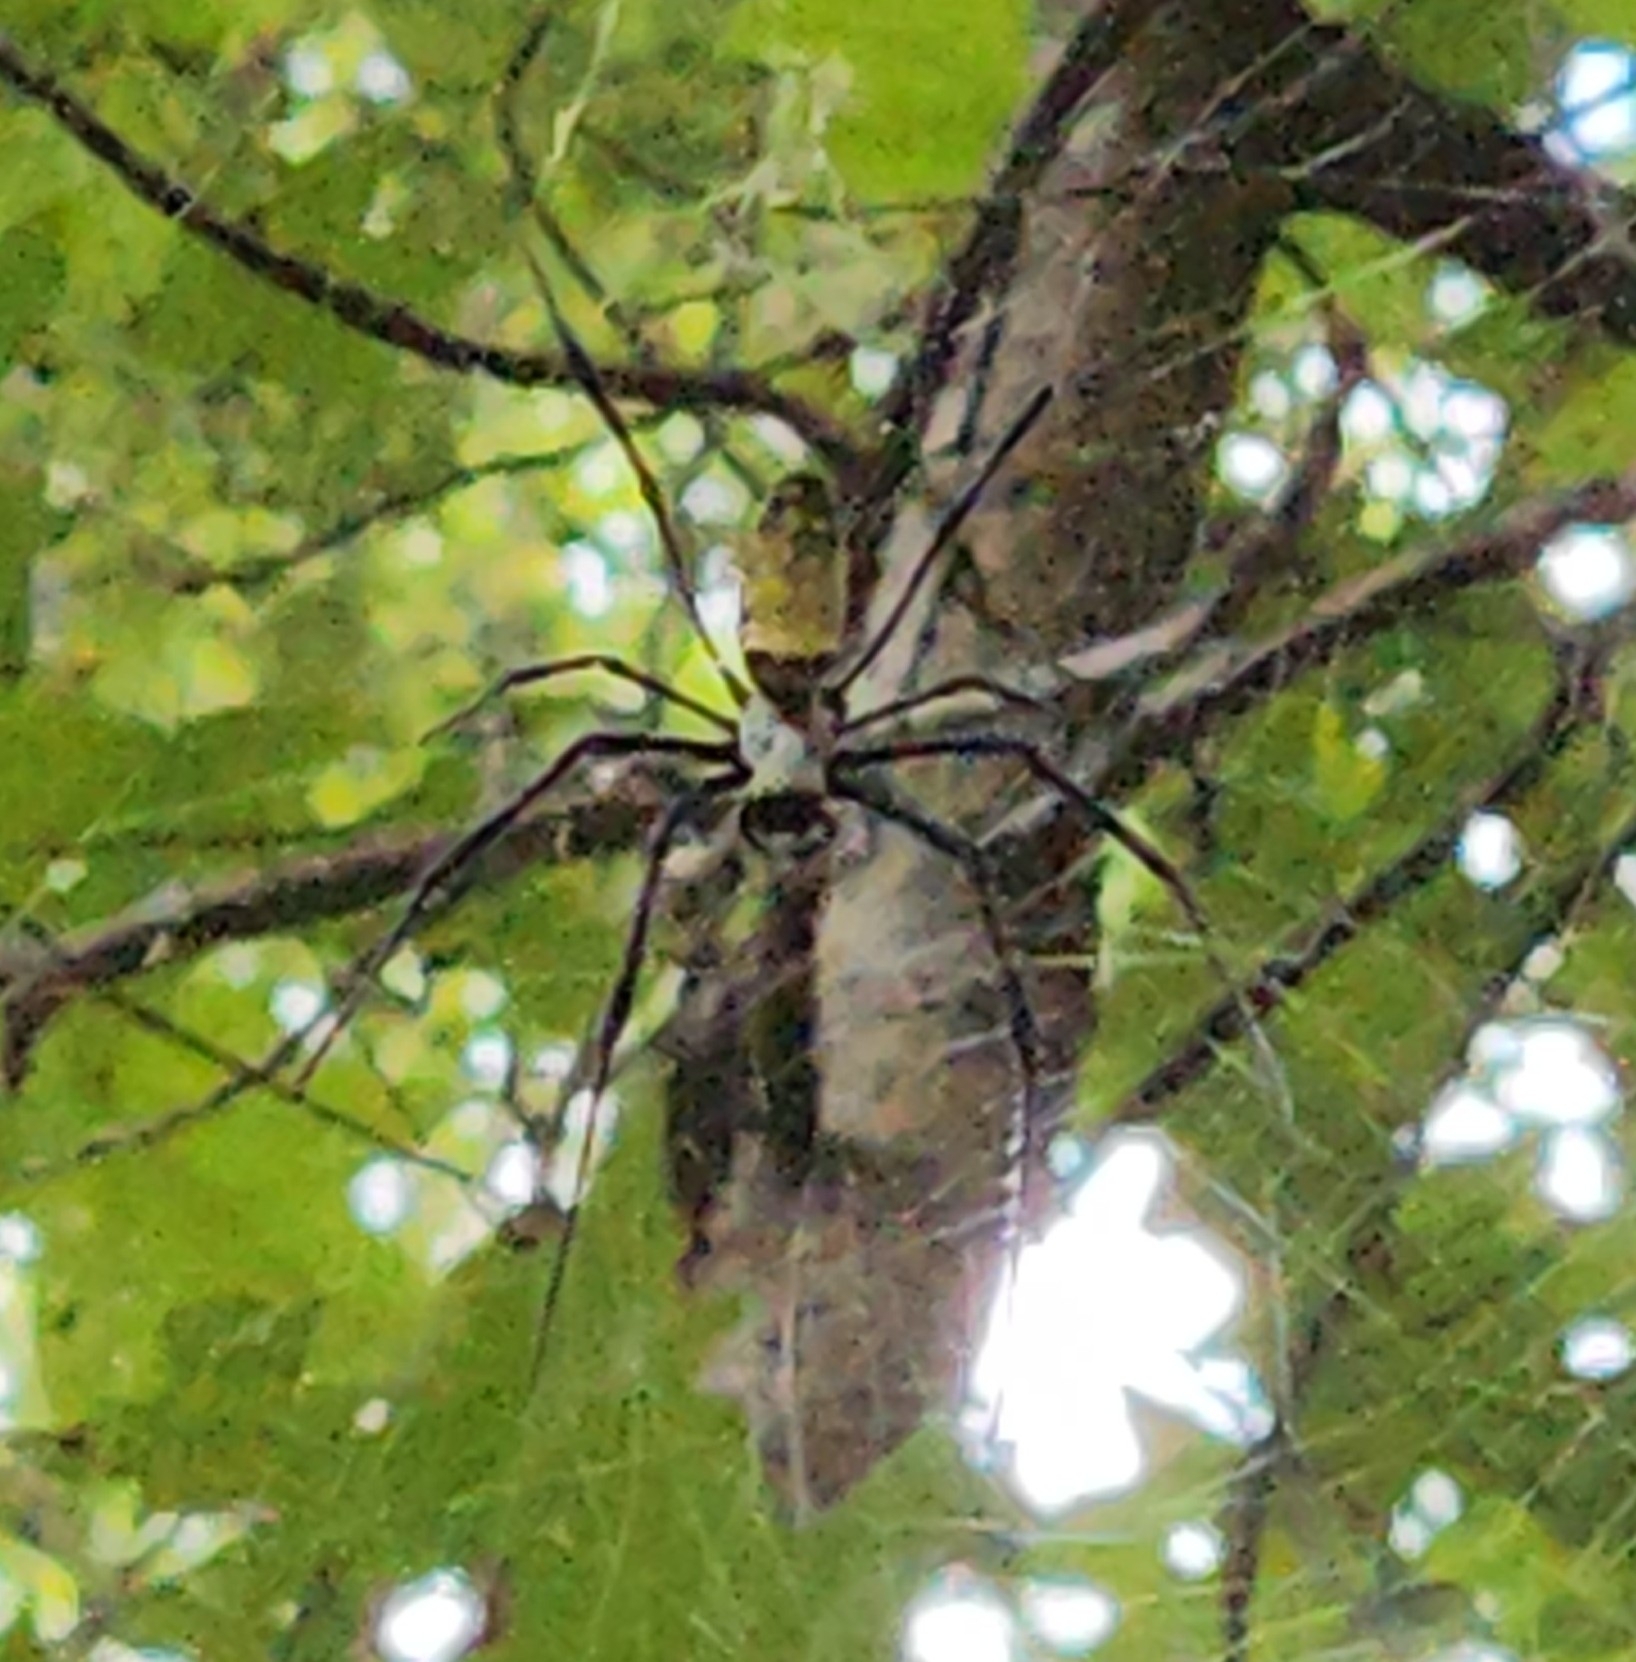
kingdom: Animalia
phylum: Arthropoda
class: Arachnida
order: Araneae
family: Araneidae
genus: Trichonephila
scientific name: Trichonephila clavata
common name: Jorō spider
